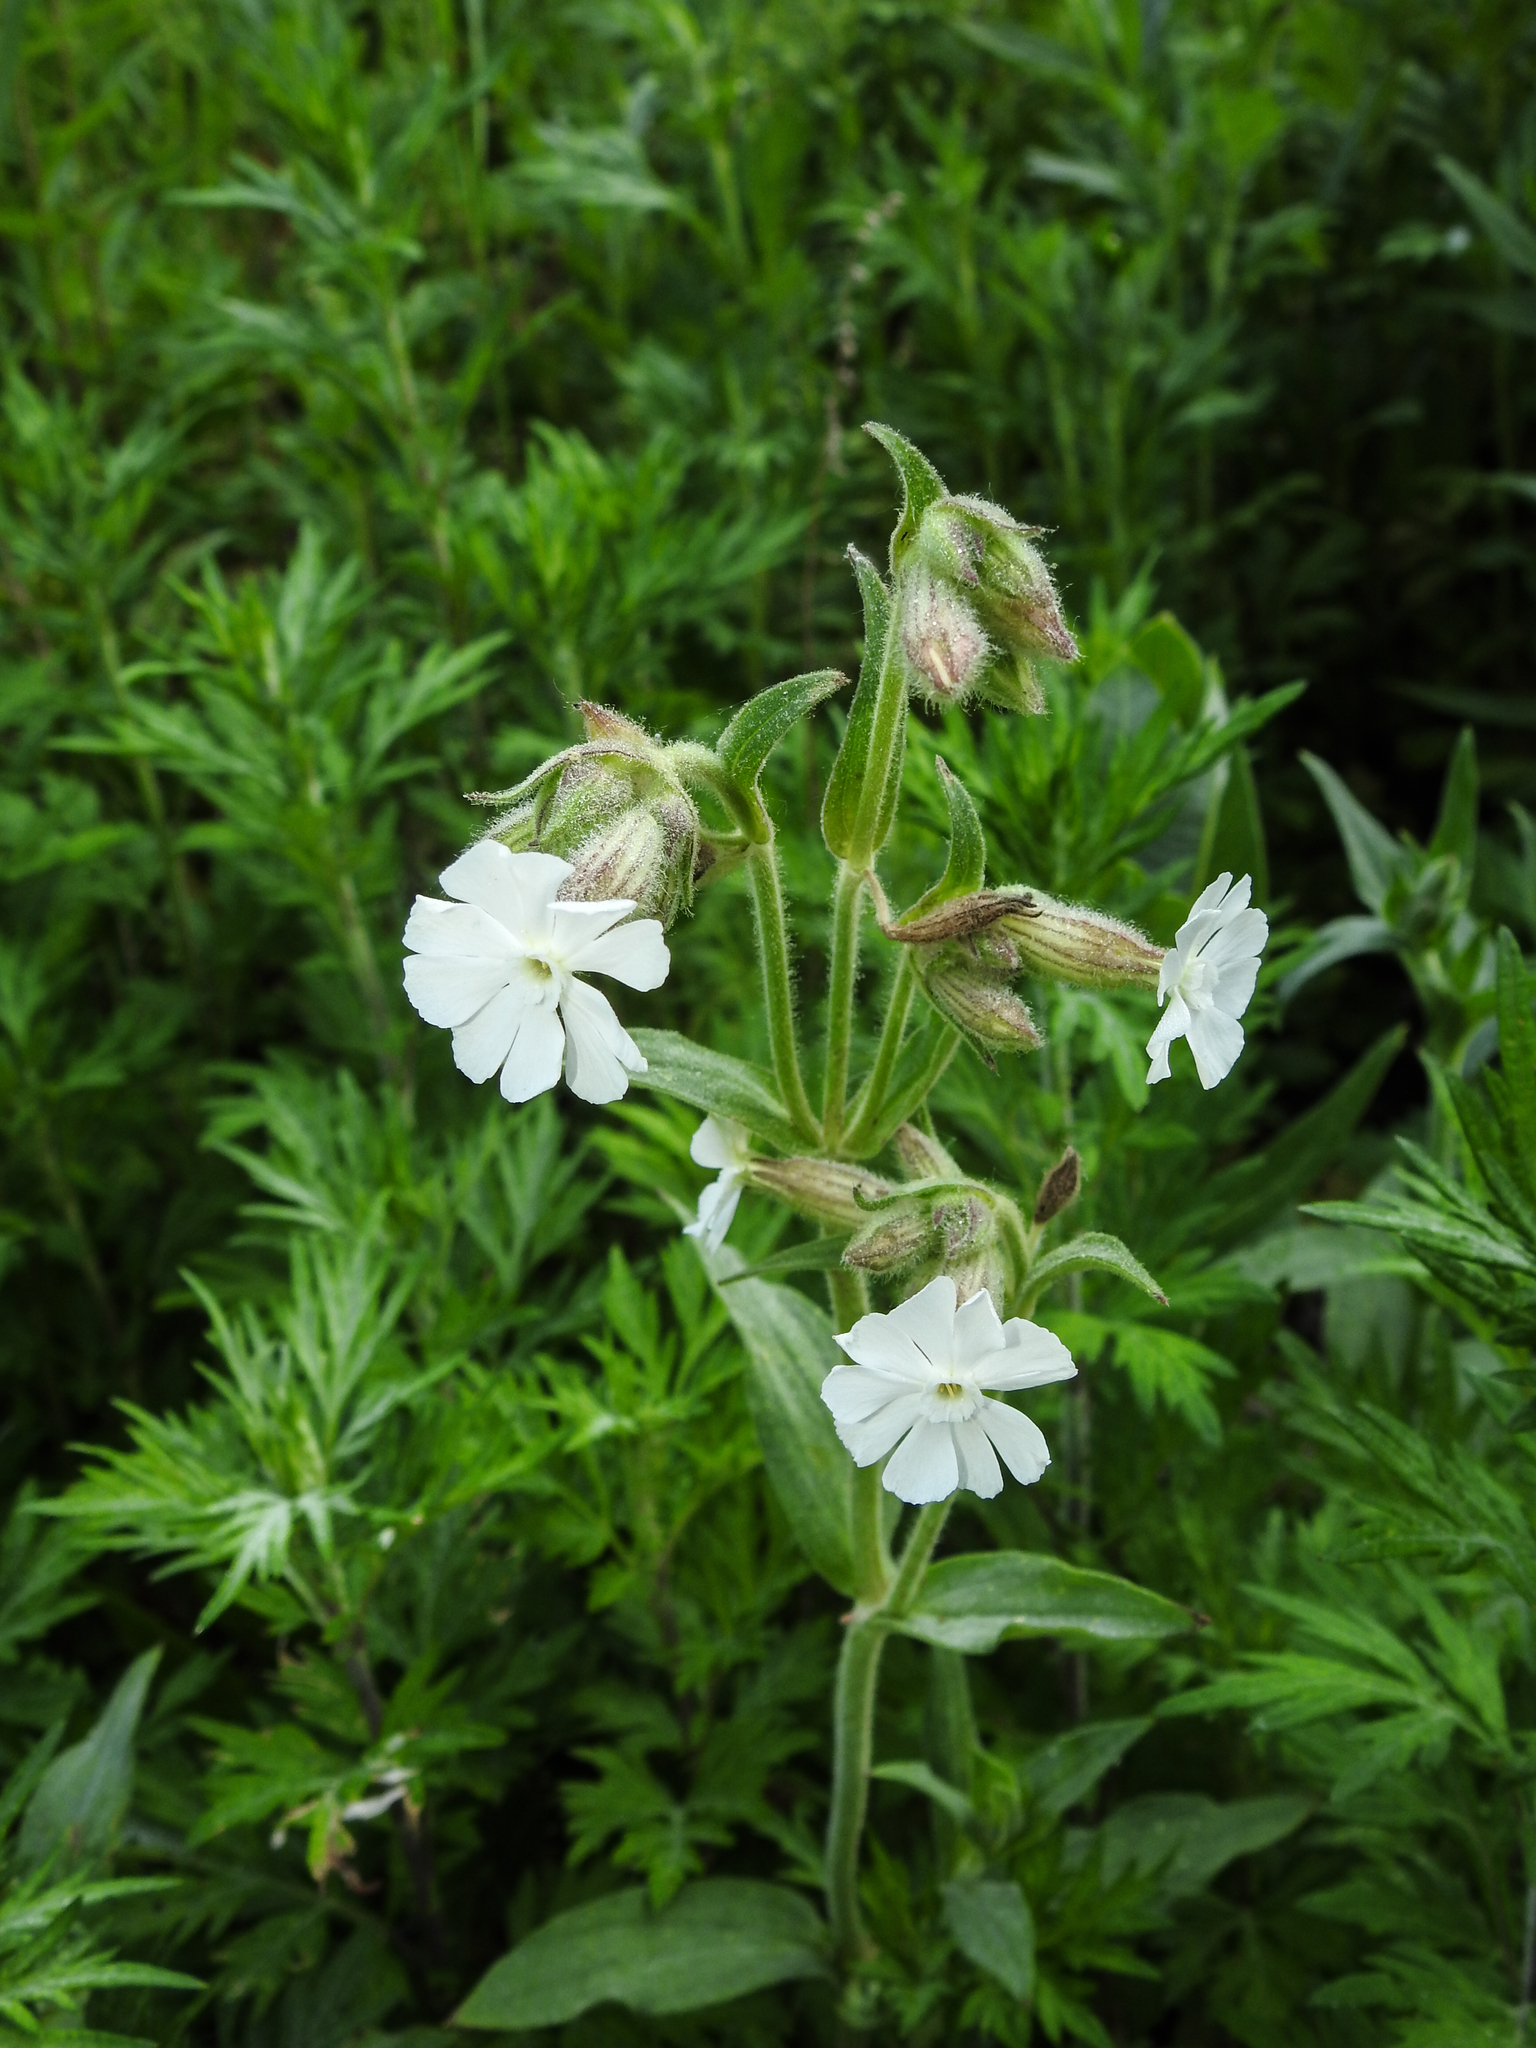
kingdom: Plantae
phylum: Tracheophyta
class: Magnoliopsida
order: Caryophyllales
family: Caryophyllaceae
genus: Silene
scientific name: Silene latifolia
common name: White campion
